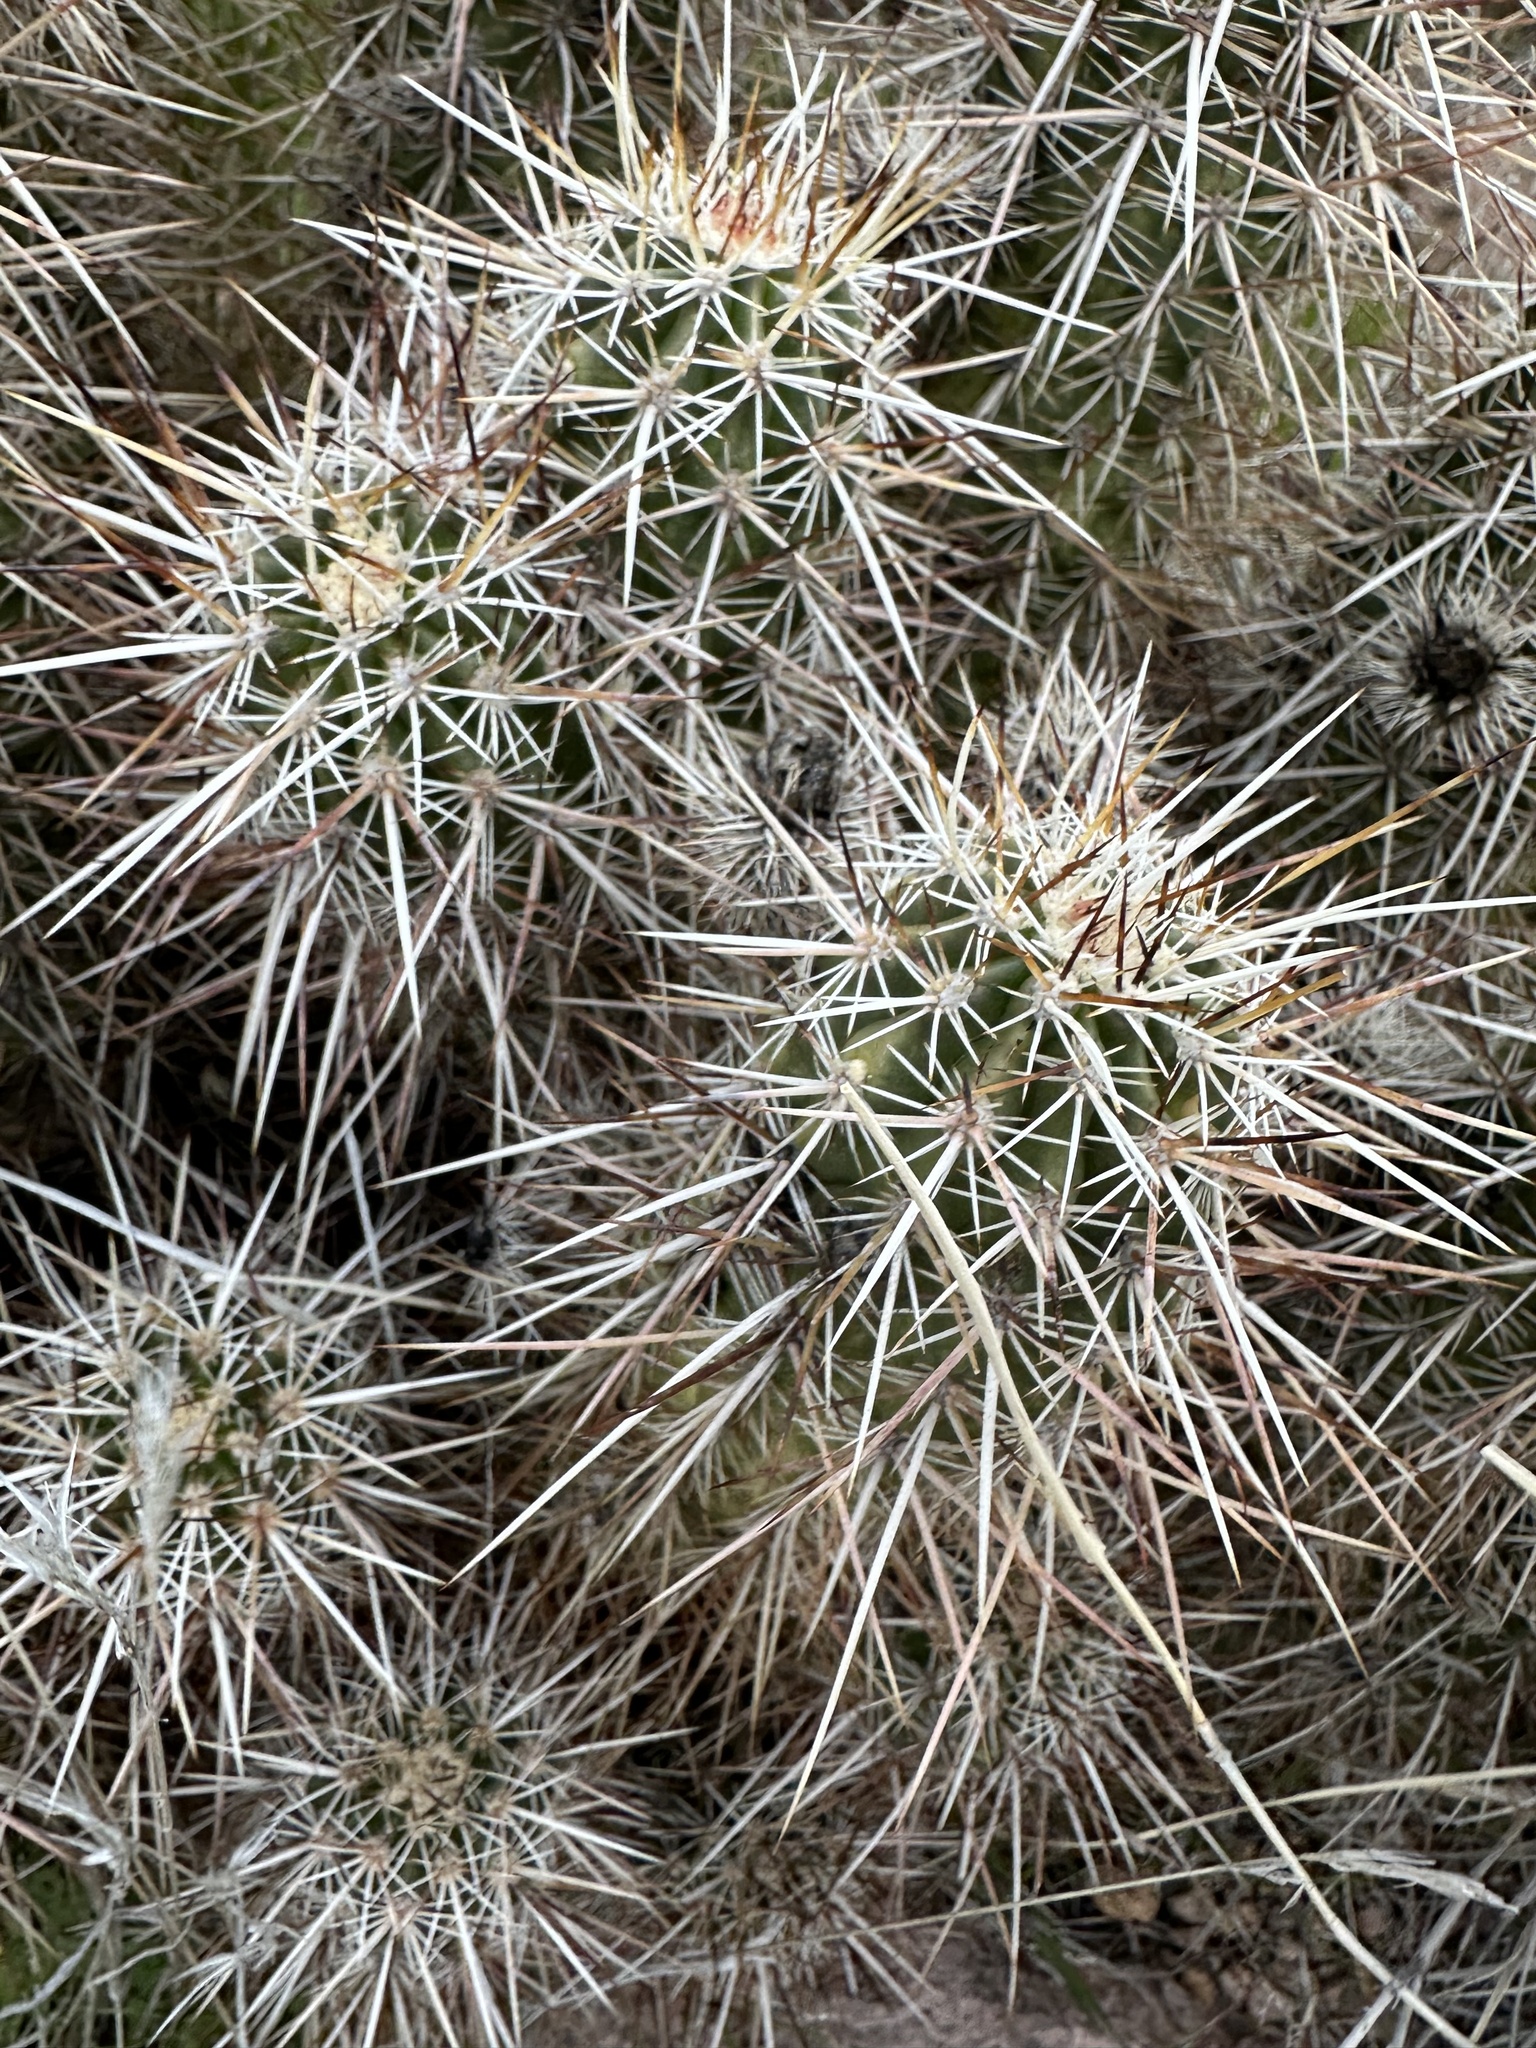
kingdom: Plantae
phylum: Tracheophyta
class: Magnoliopsida
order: Caryophyllales
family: Cactaceae
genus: Echinocereus
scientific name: Echinocereus engelmannii
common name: Engelmann's hedgehog cactus
